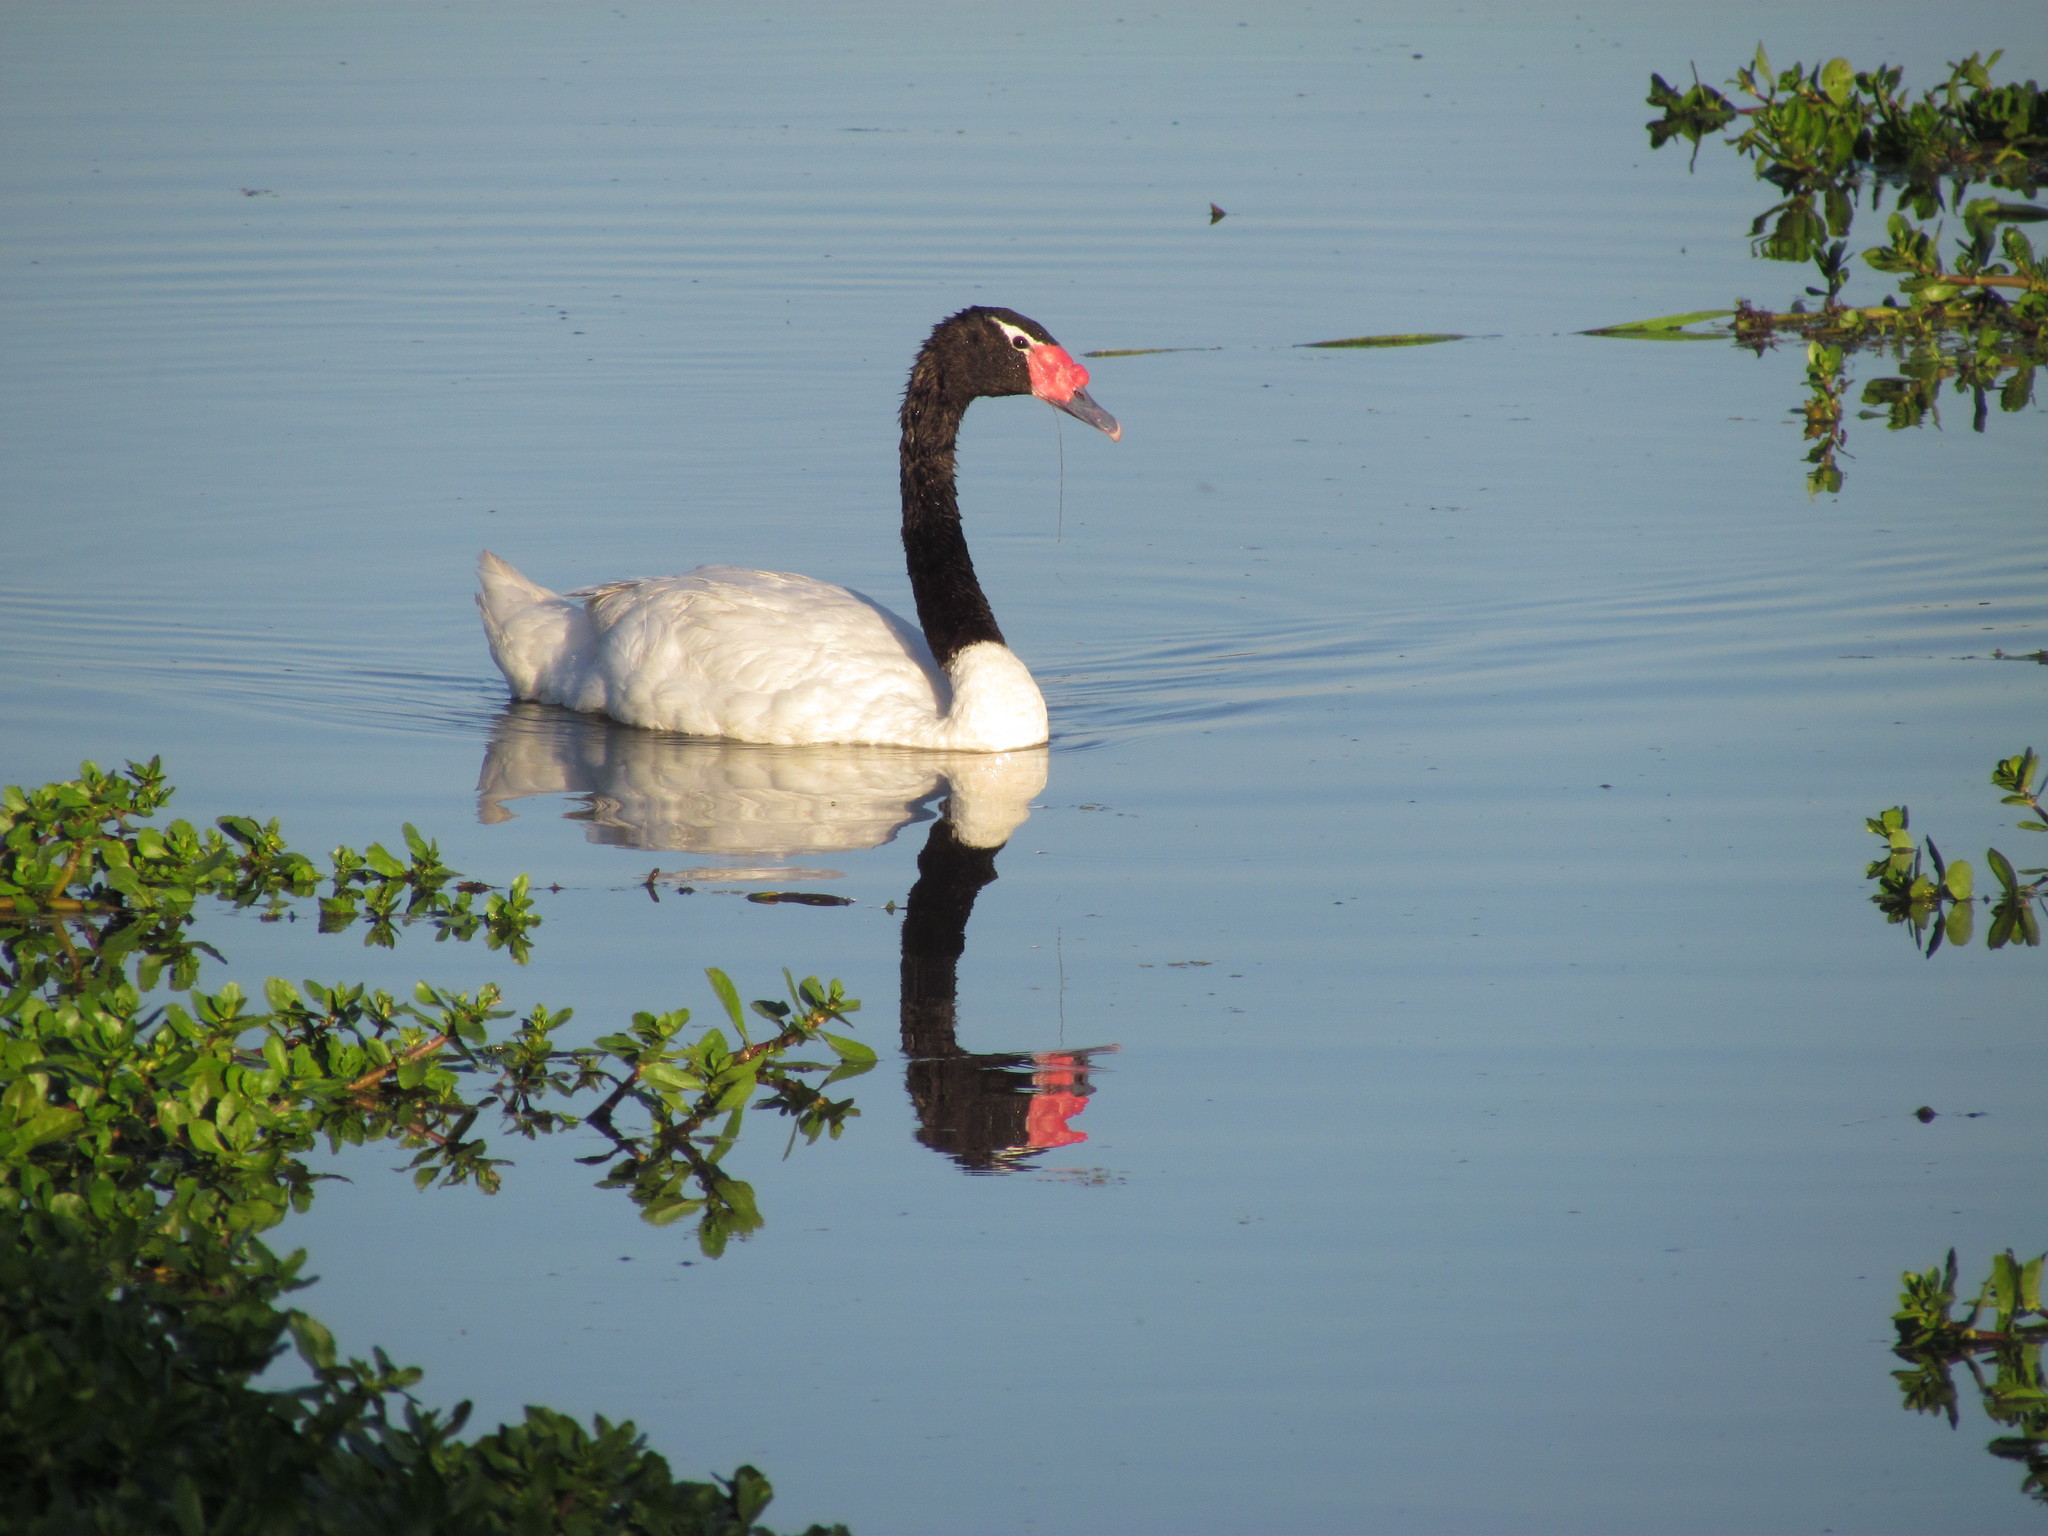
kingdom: Animalia
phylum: Chordata
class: Aves
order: Anseriformes
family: Anatidae
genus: Cygnus
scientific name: Cygnus melancoryphus
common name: Black-necked swan
